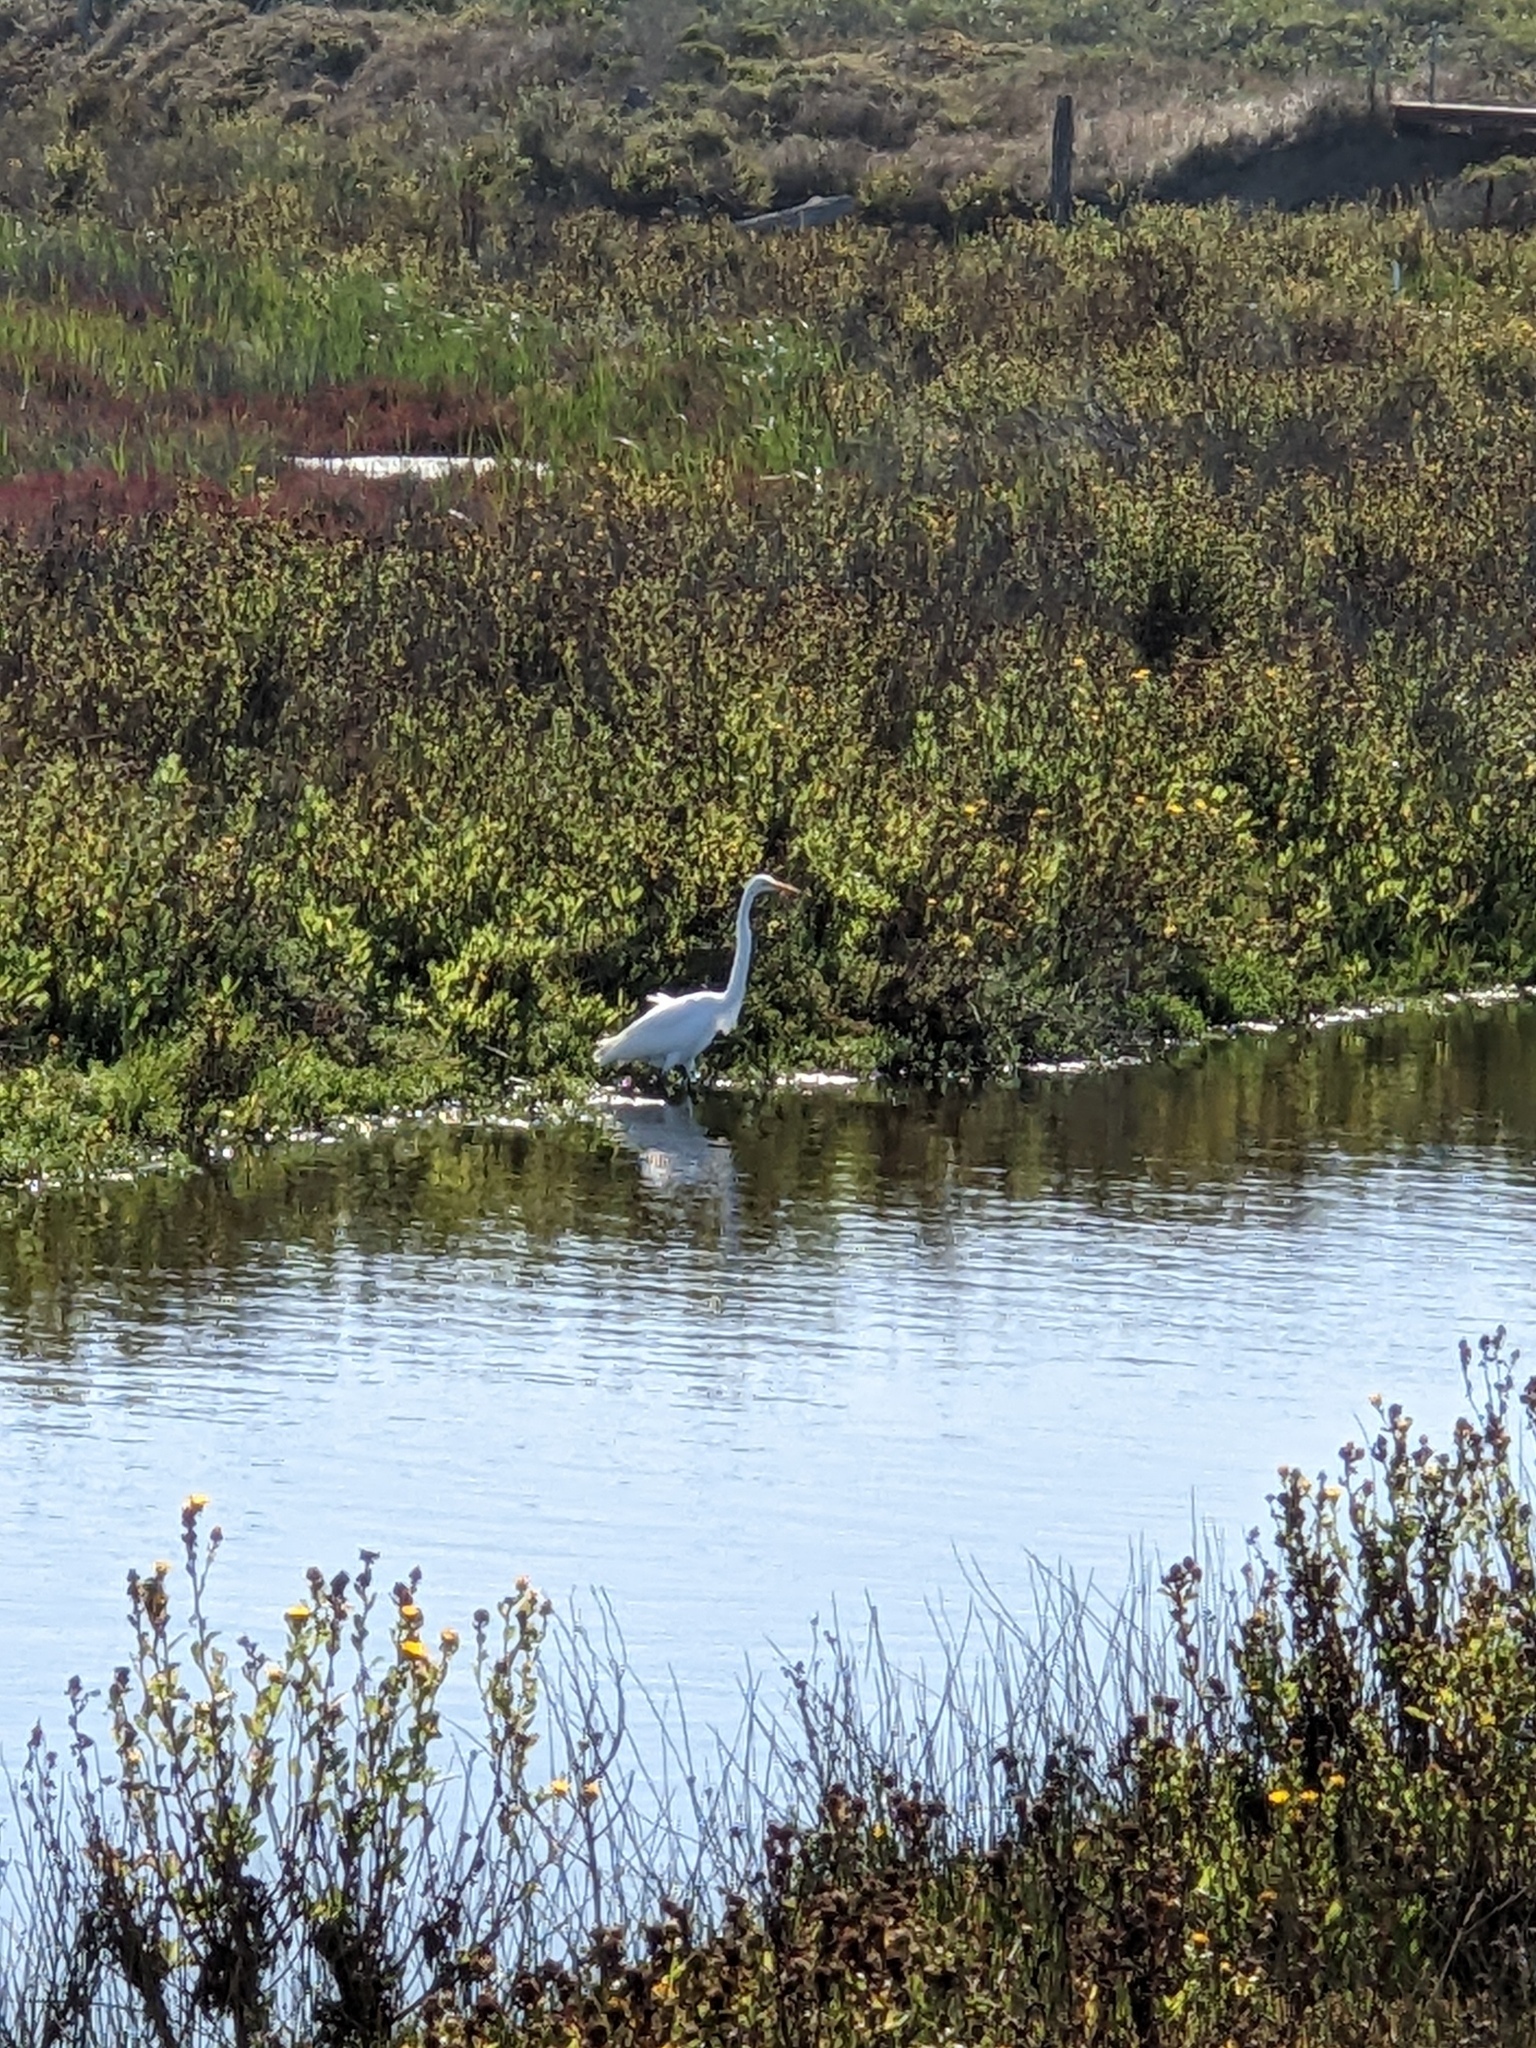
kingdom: Animalia
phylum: Chordata
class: Aves
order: Pelecaniformes
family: Ardeidae
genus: Ardea
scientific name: Ardea alba
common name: Great egret
